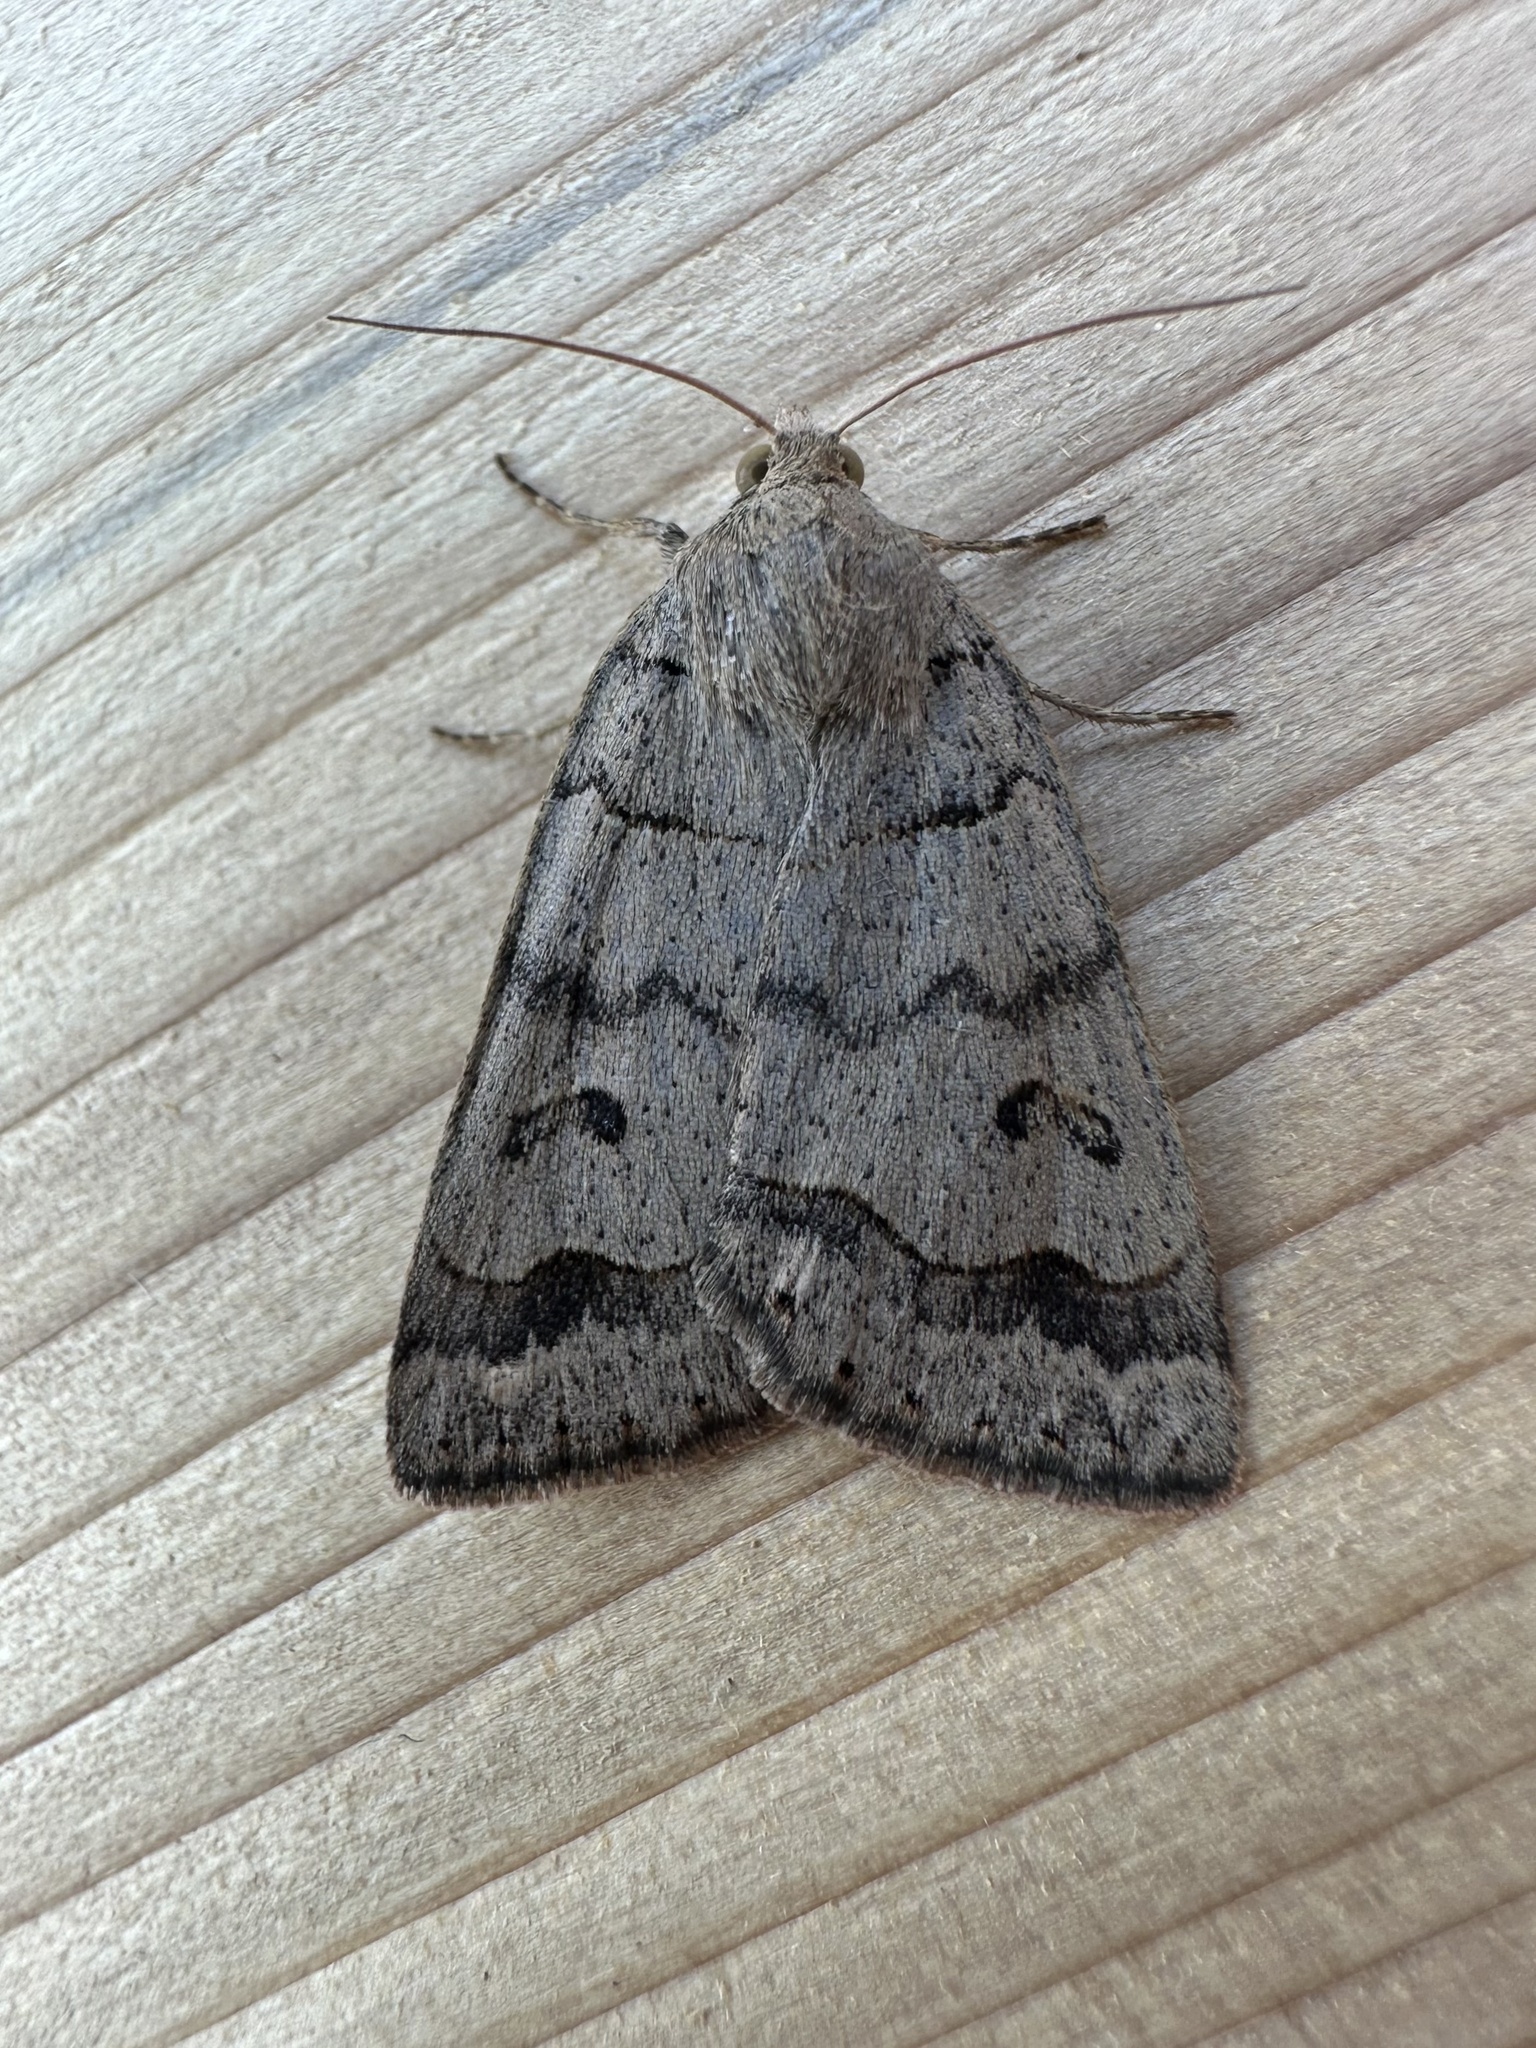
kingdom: Animalia
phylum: Arthropoda
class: Insecta
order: Lepidoptera
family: Erebidae
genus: Phoberia
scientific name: Phoberia atomaris
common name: Common oak moth
